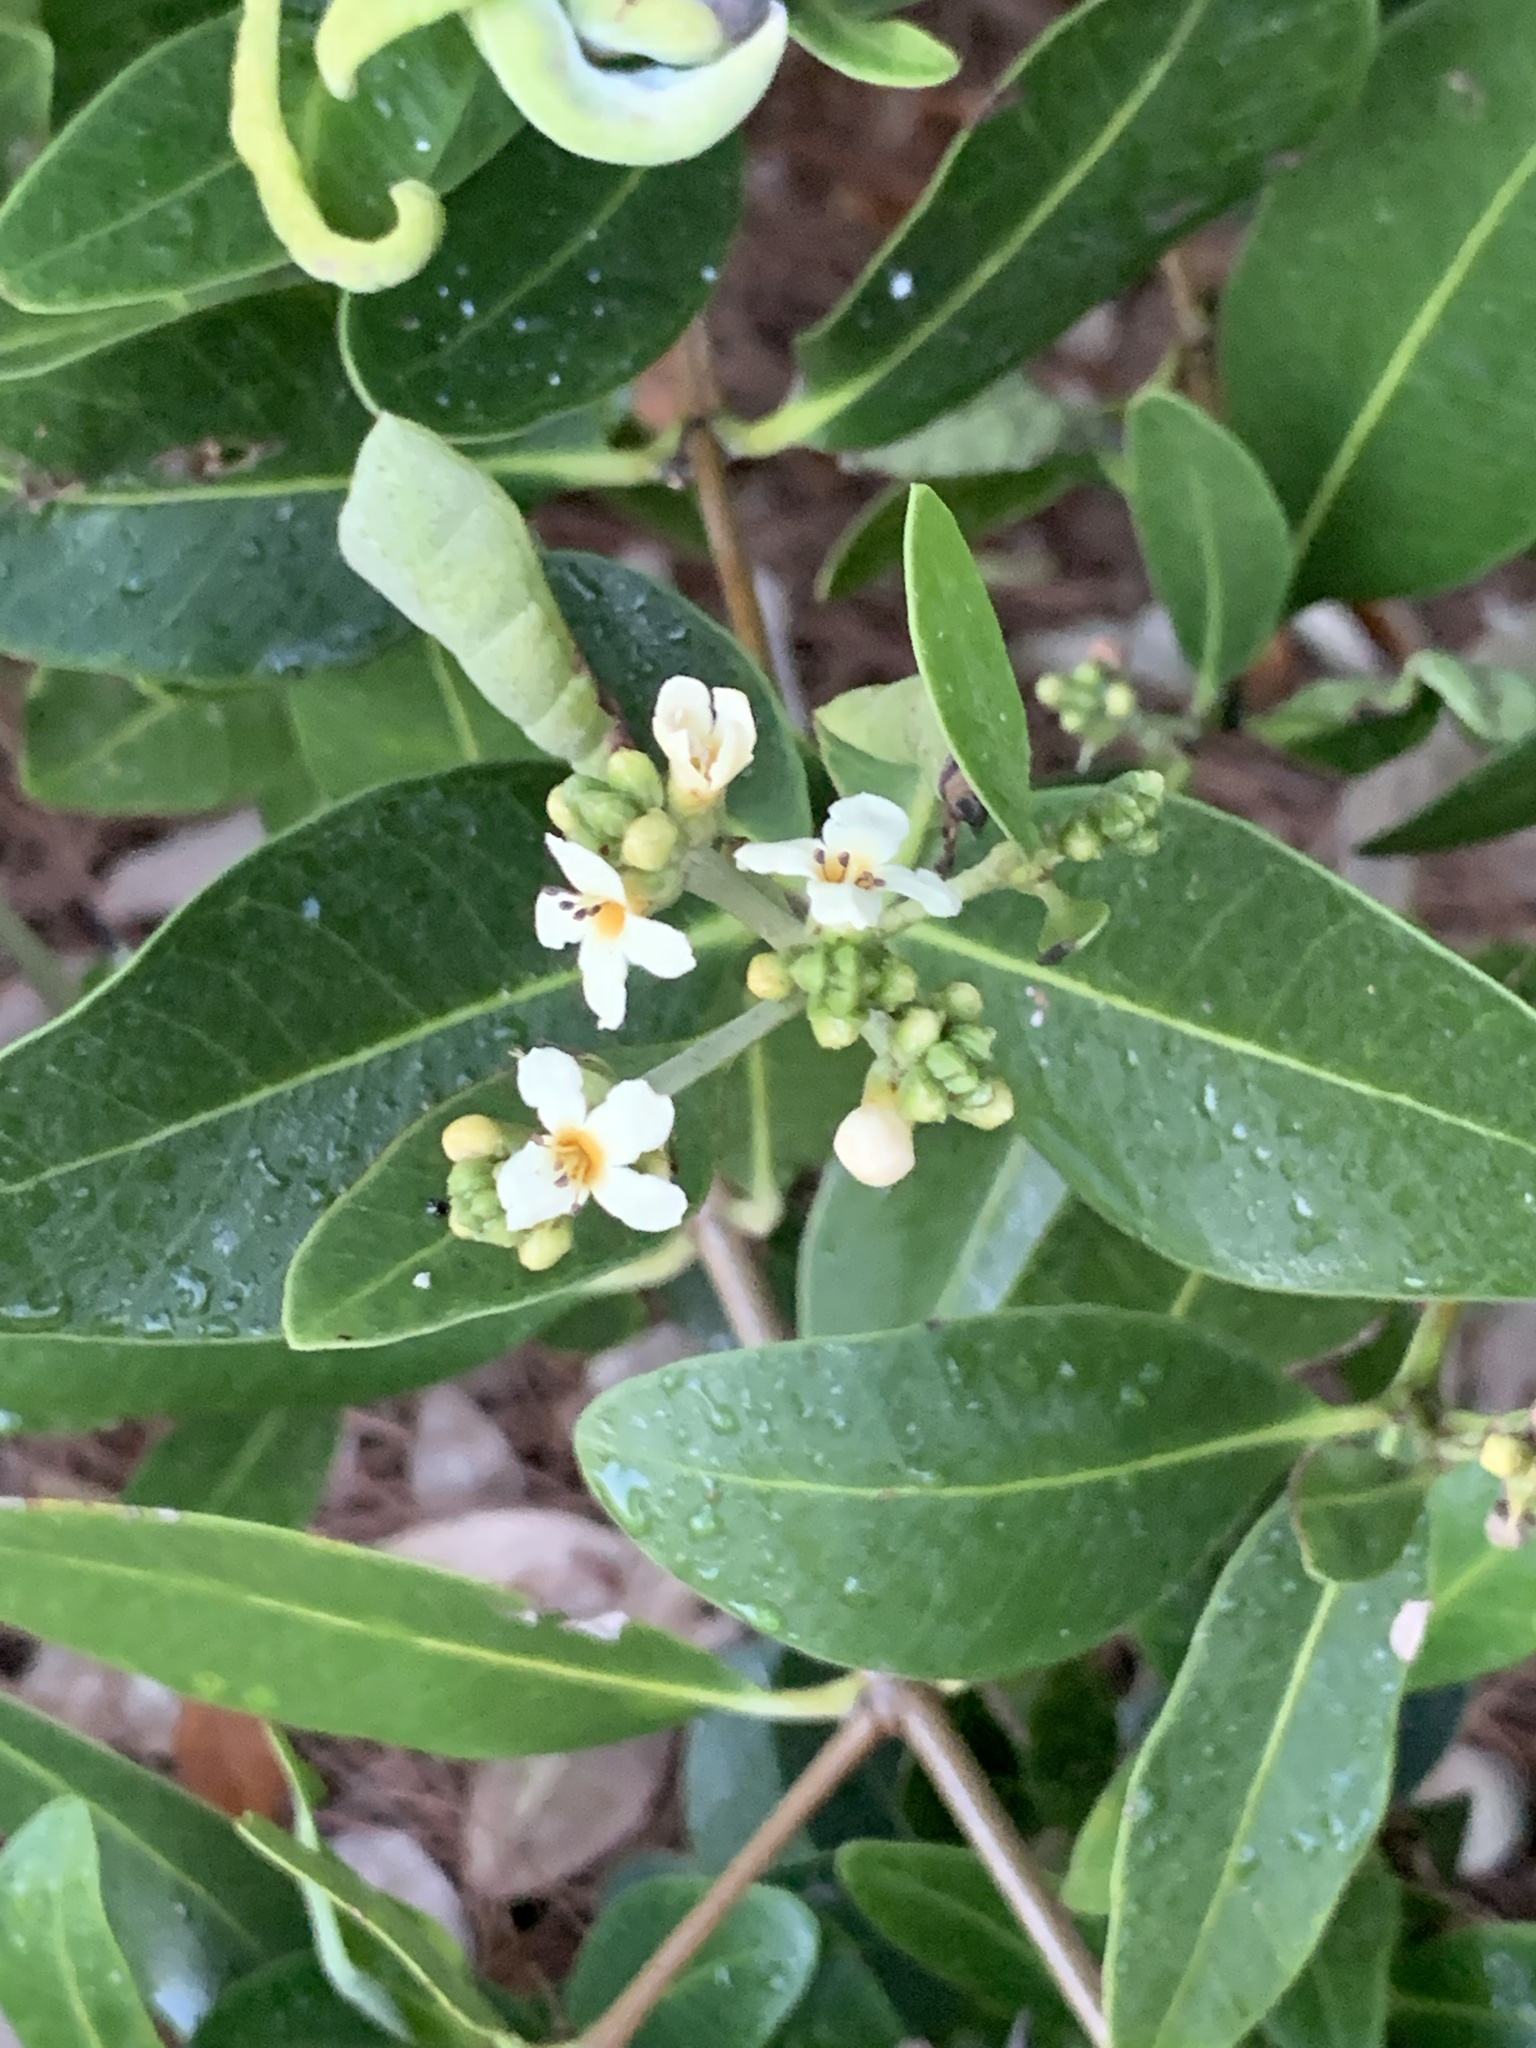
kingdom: Plantae
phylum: Tracheophyta
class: Magnoliopsida
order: Lamiales
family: Acanthaceae
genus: Avicennia
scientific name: Avicennia germinans
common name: Black mangrove
